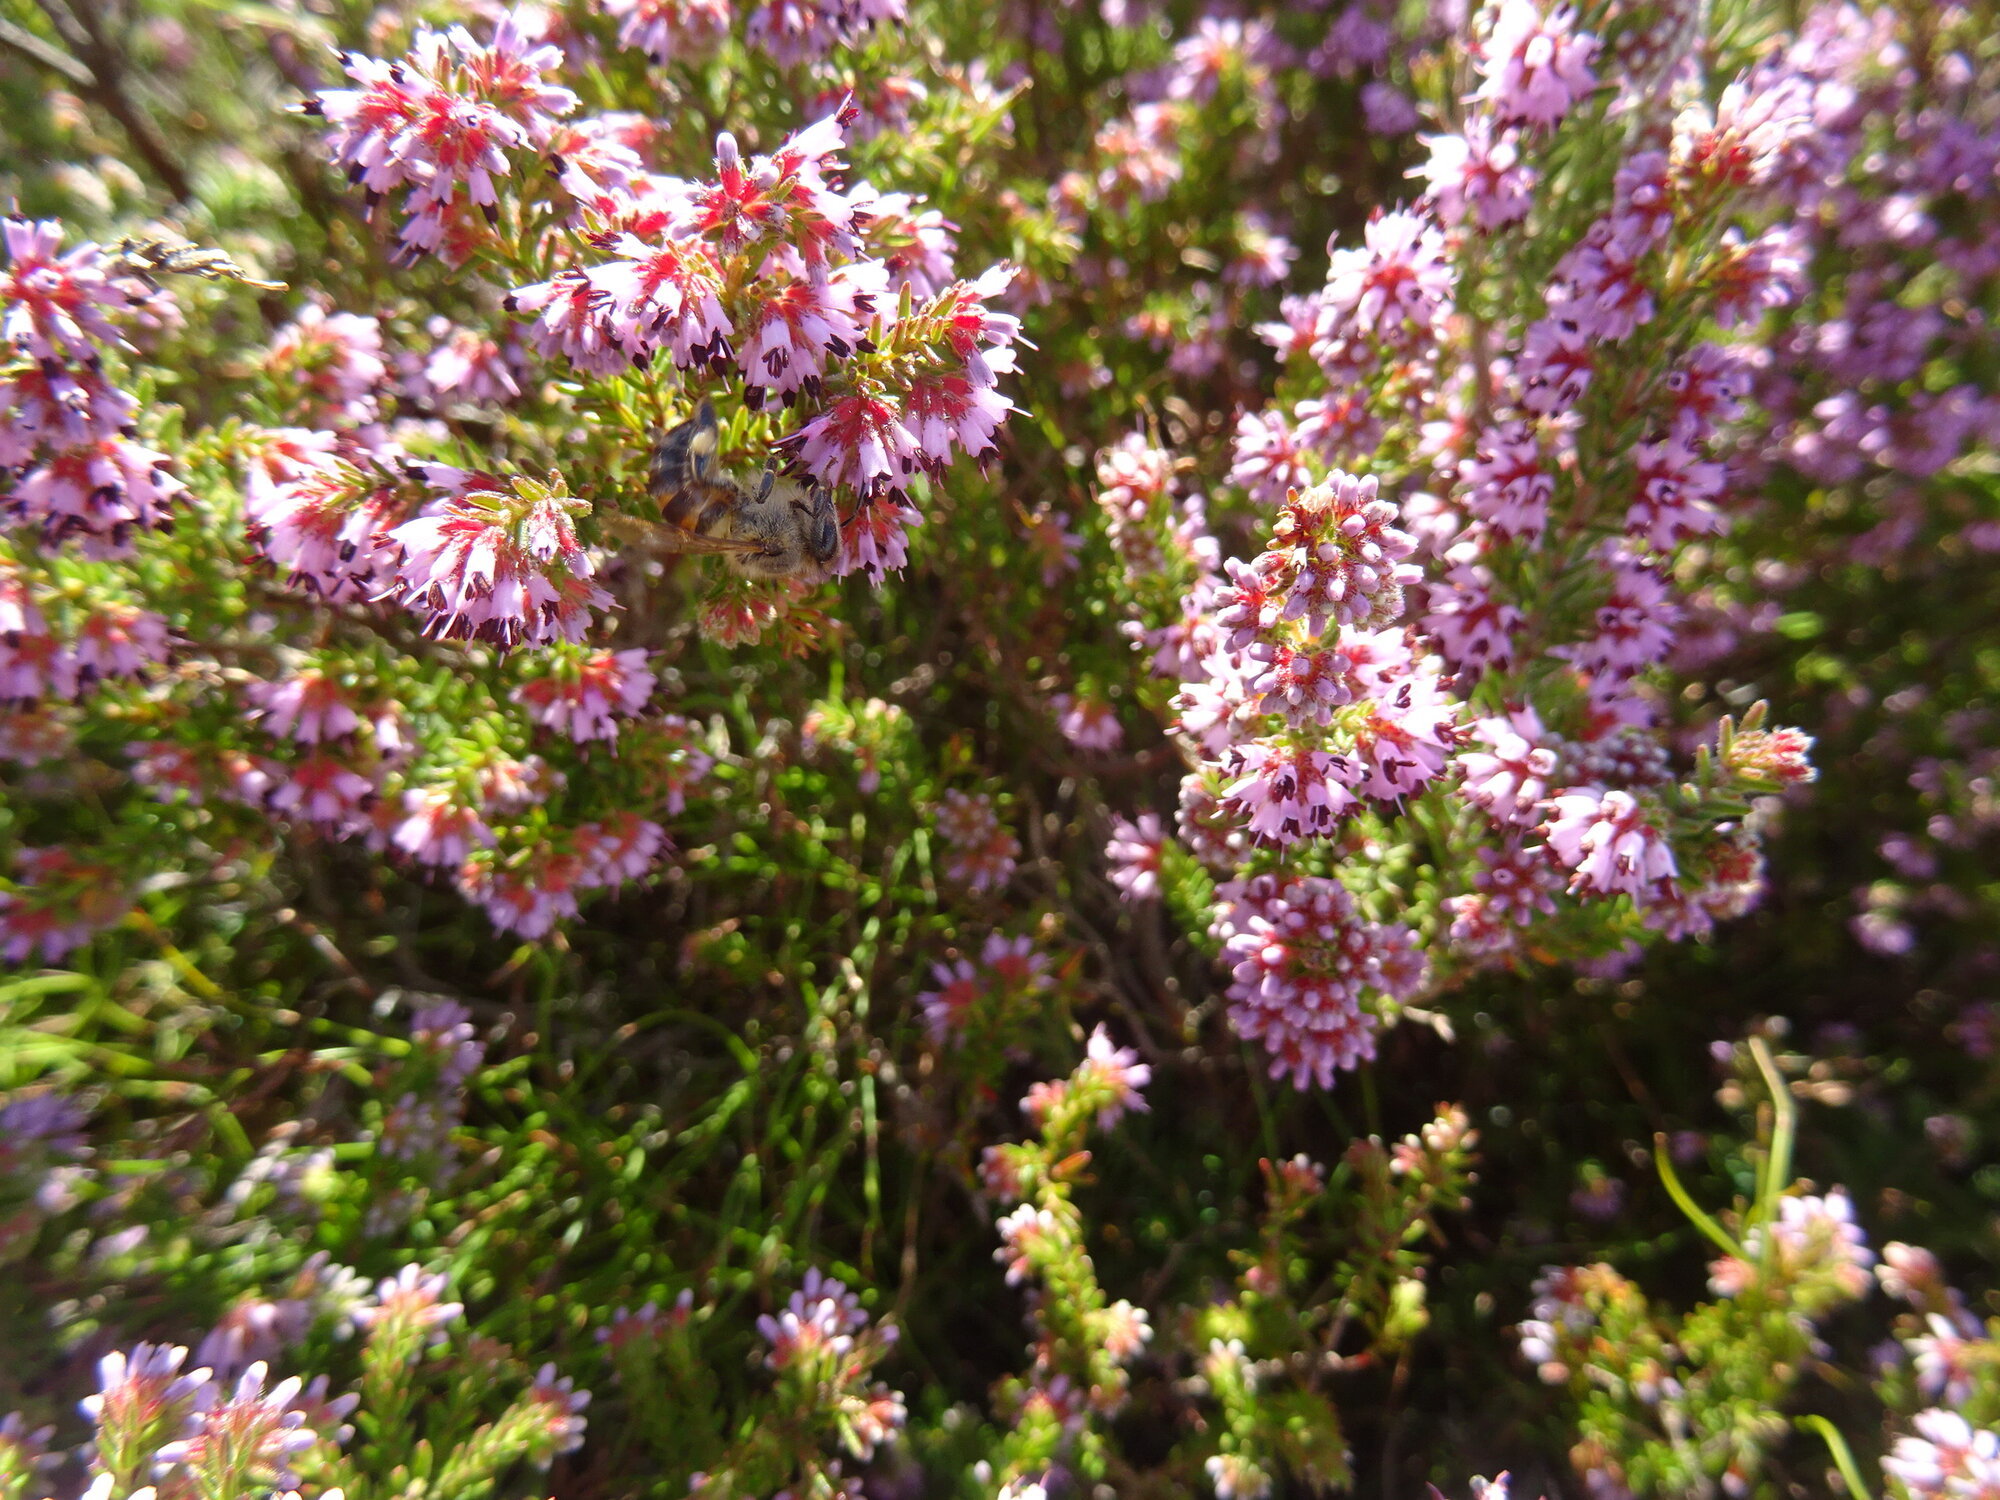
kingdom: Animalia
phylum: Arthropoda
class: Insecta
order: Hymenoptera
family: Apidae
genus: Apis
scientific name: Apis mellifera
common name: Honey bee
